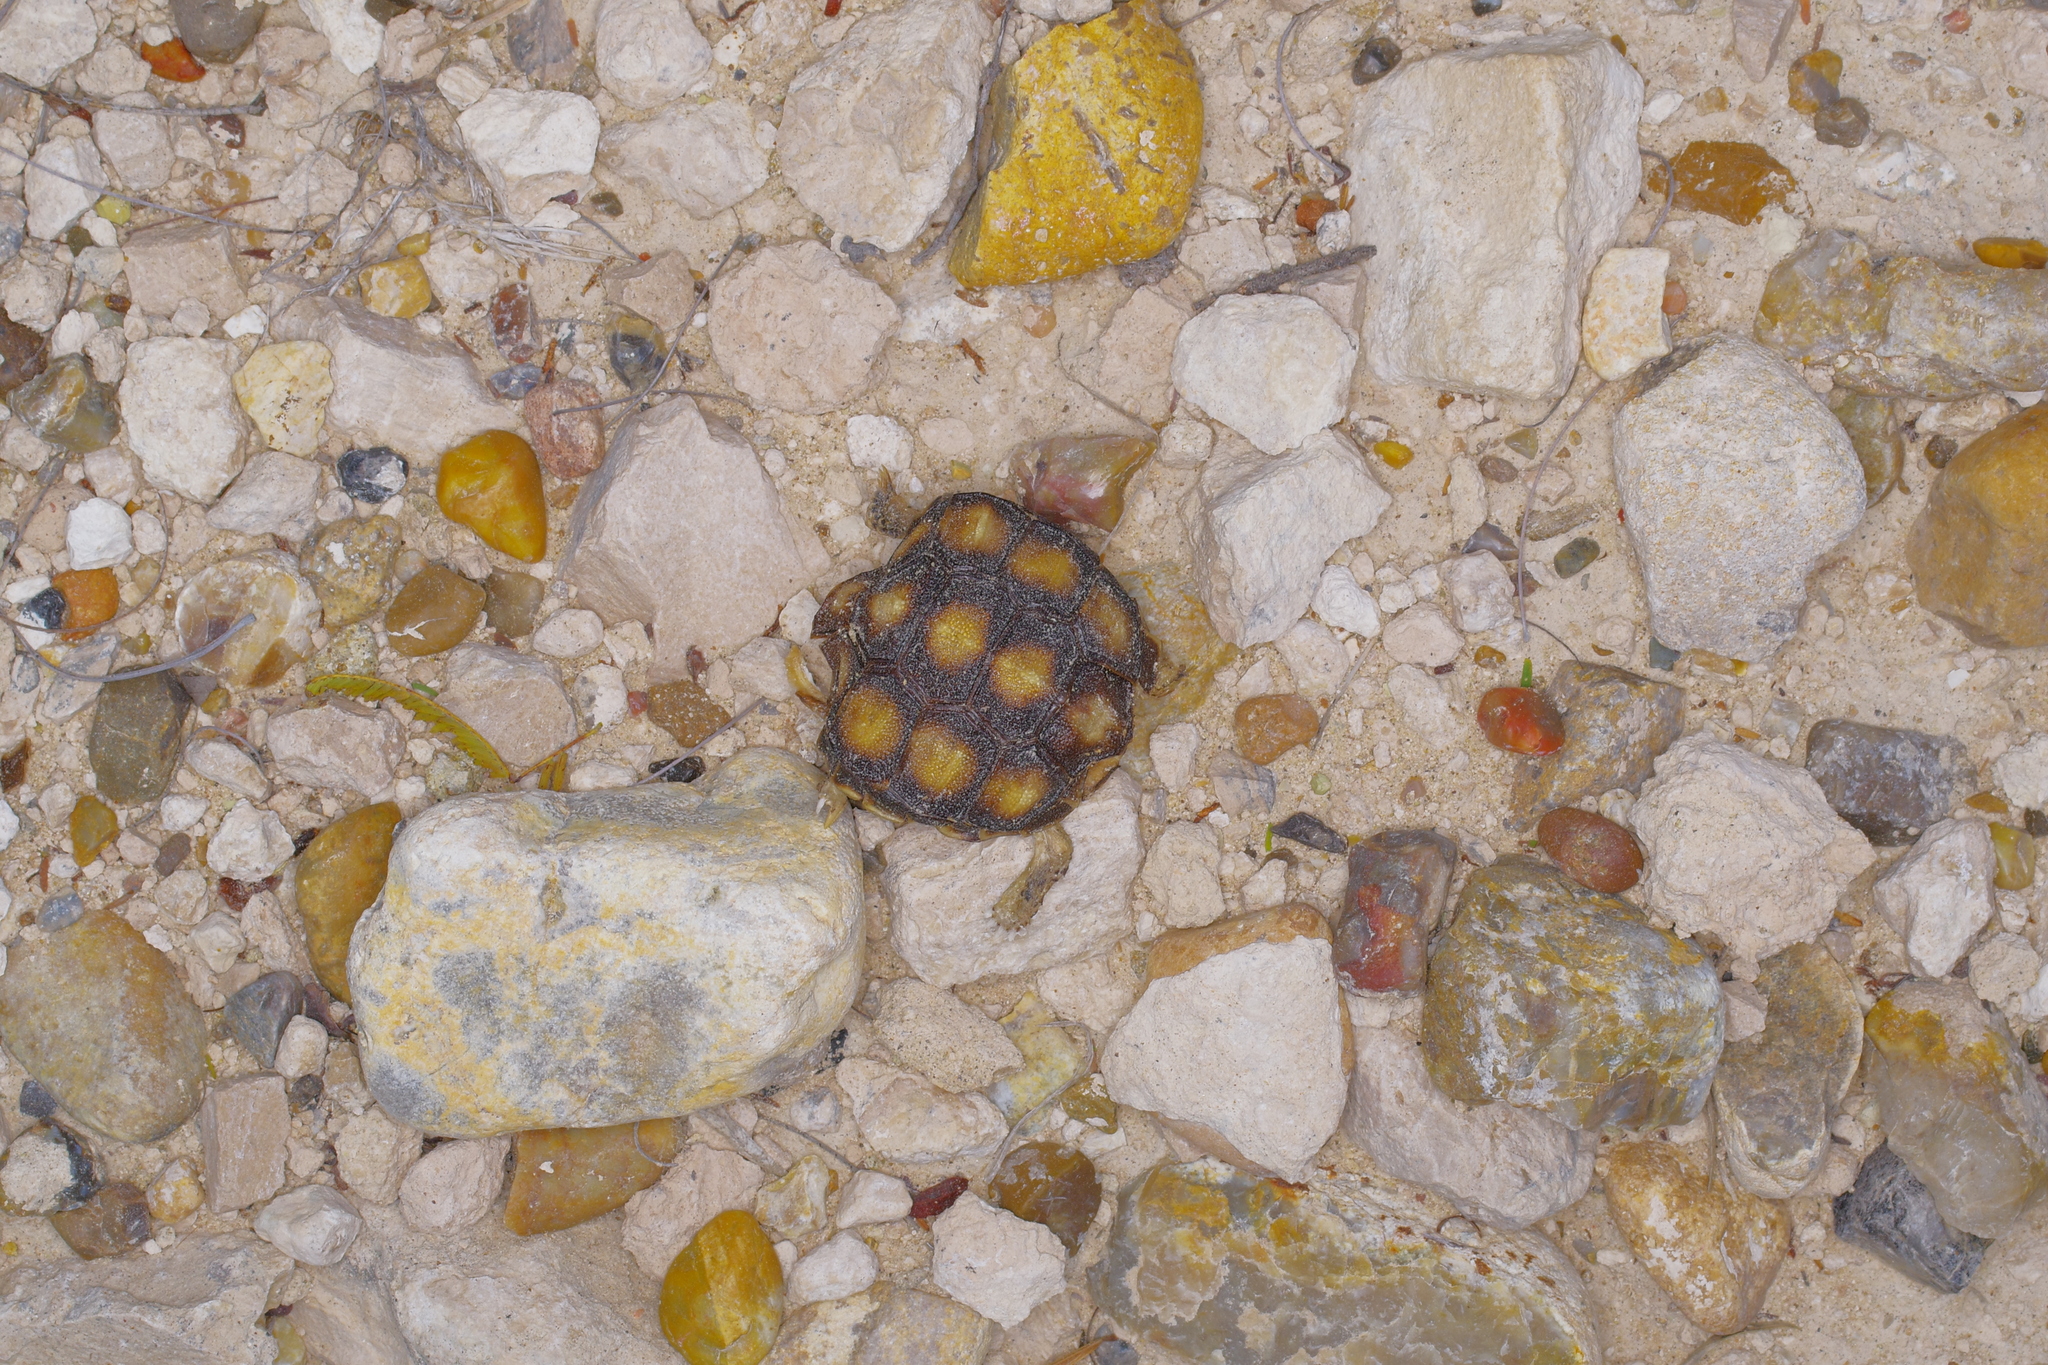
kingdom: Animalia
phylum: Chordata
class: Testudines
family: Testudinidae
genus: Gopherus
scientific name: Gopherus berlandieri
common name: Texas (gopher )tortoise
